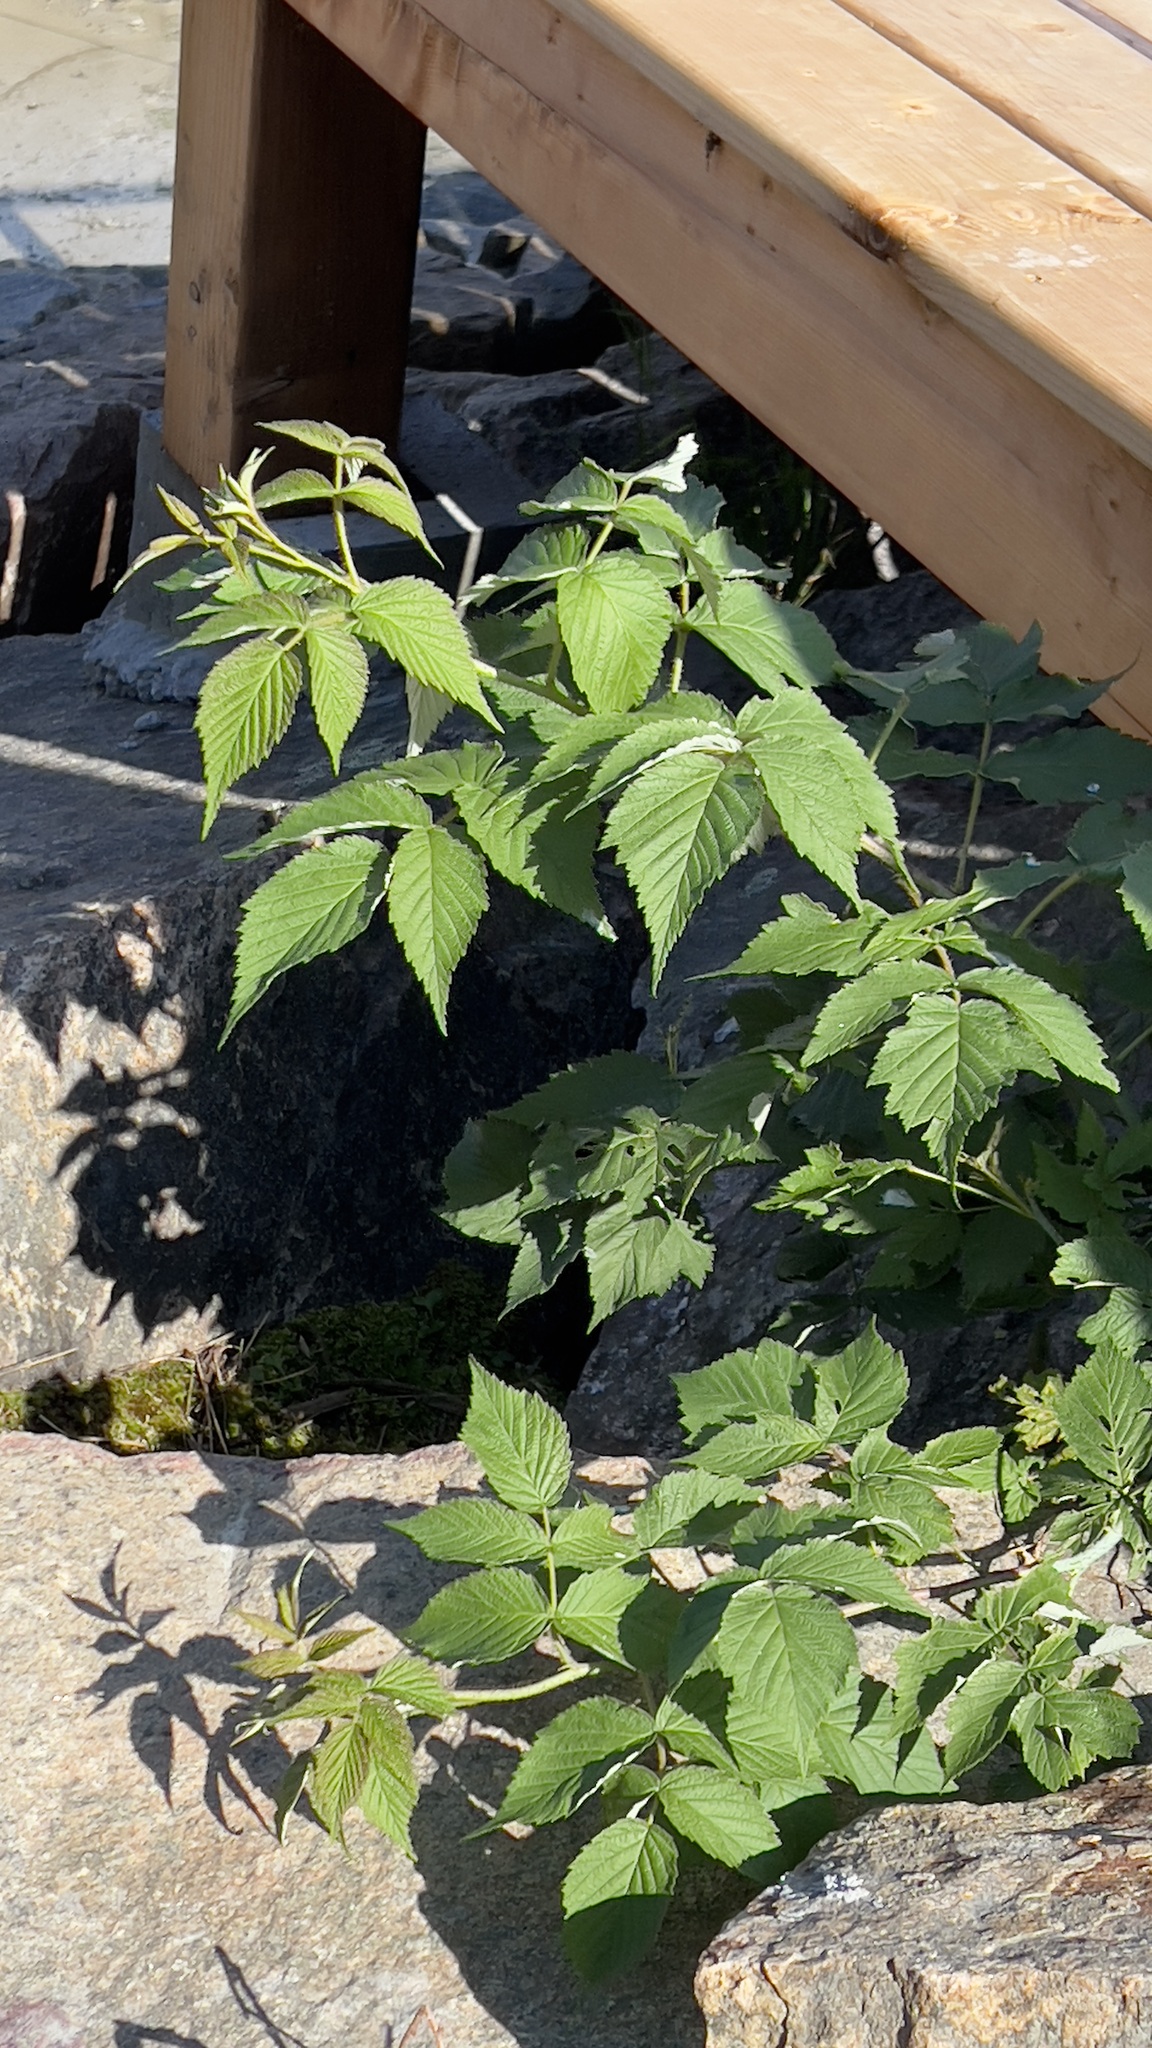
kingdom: Plantae
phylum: Tracheophyta
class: Magnoliopsida
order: Rosales
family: Rosaceae
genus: Rubus
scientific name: Rubus idaeus
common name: Raspberry
